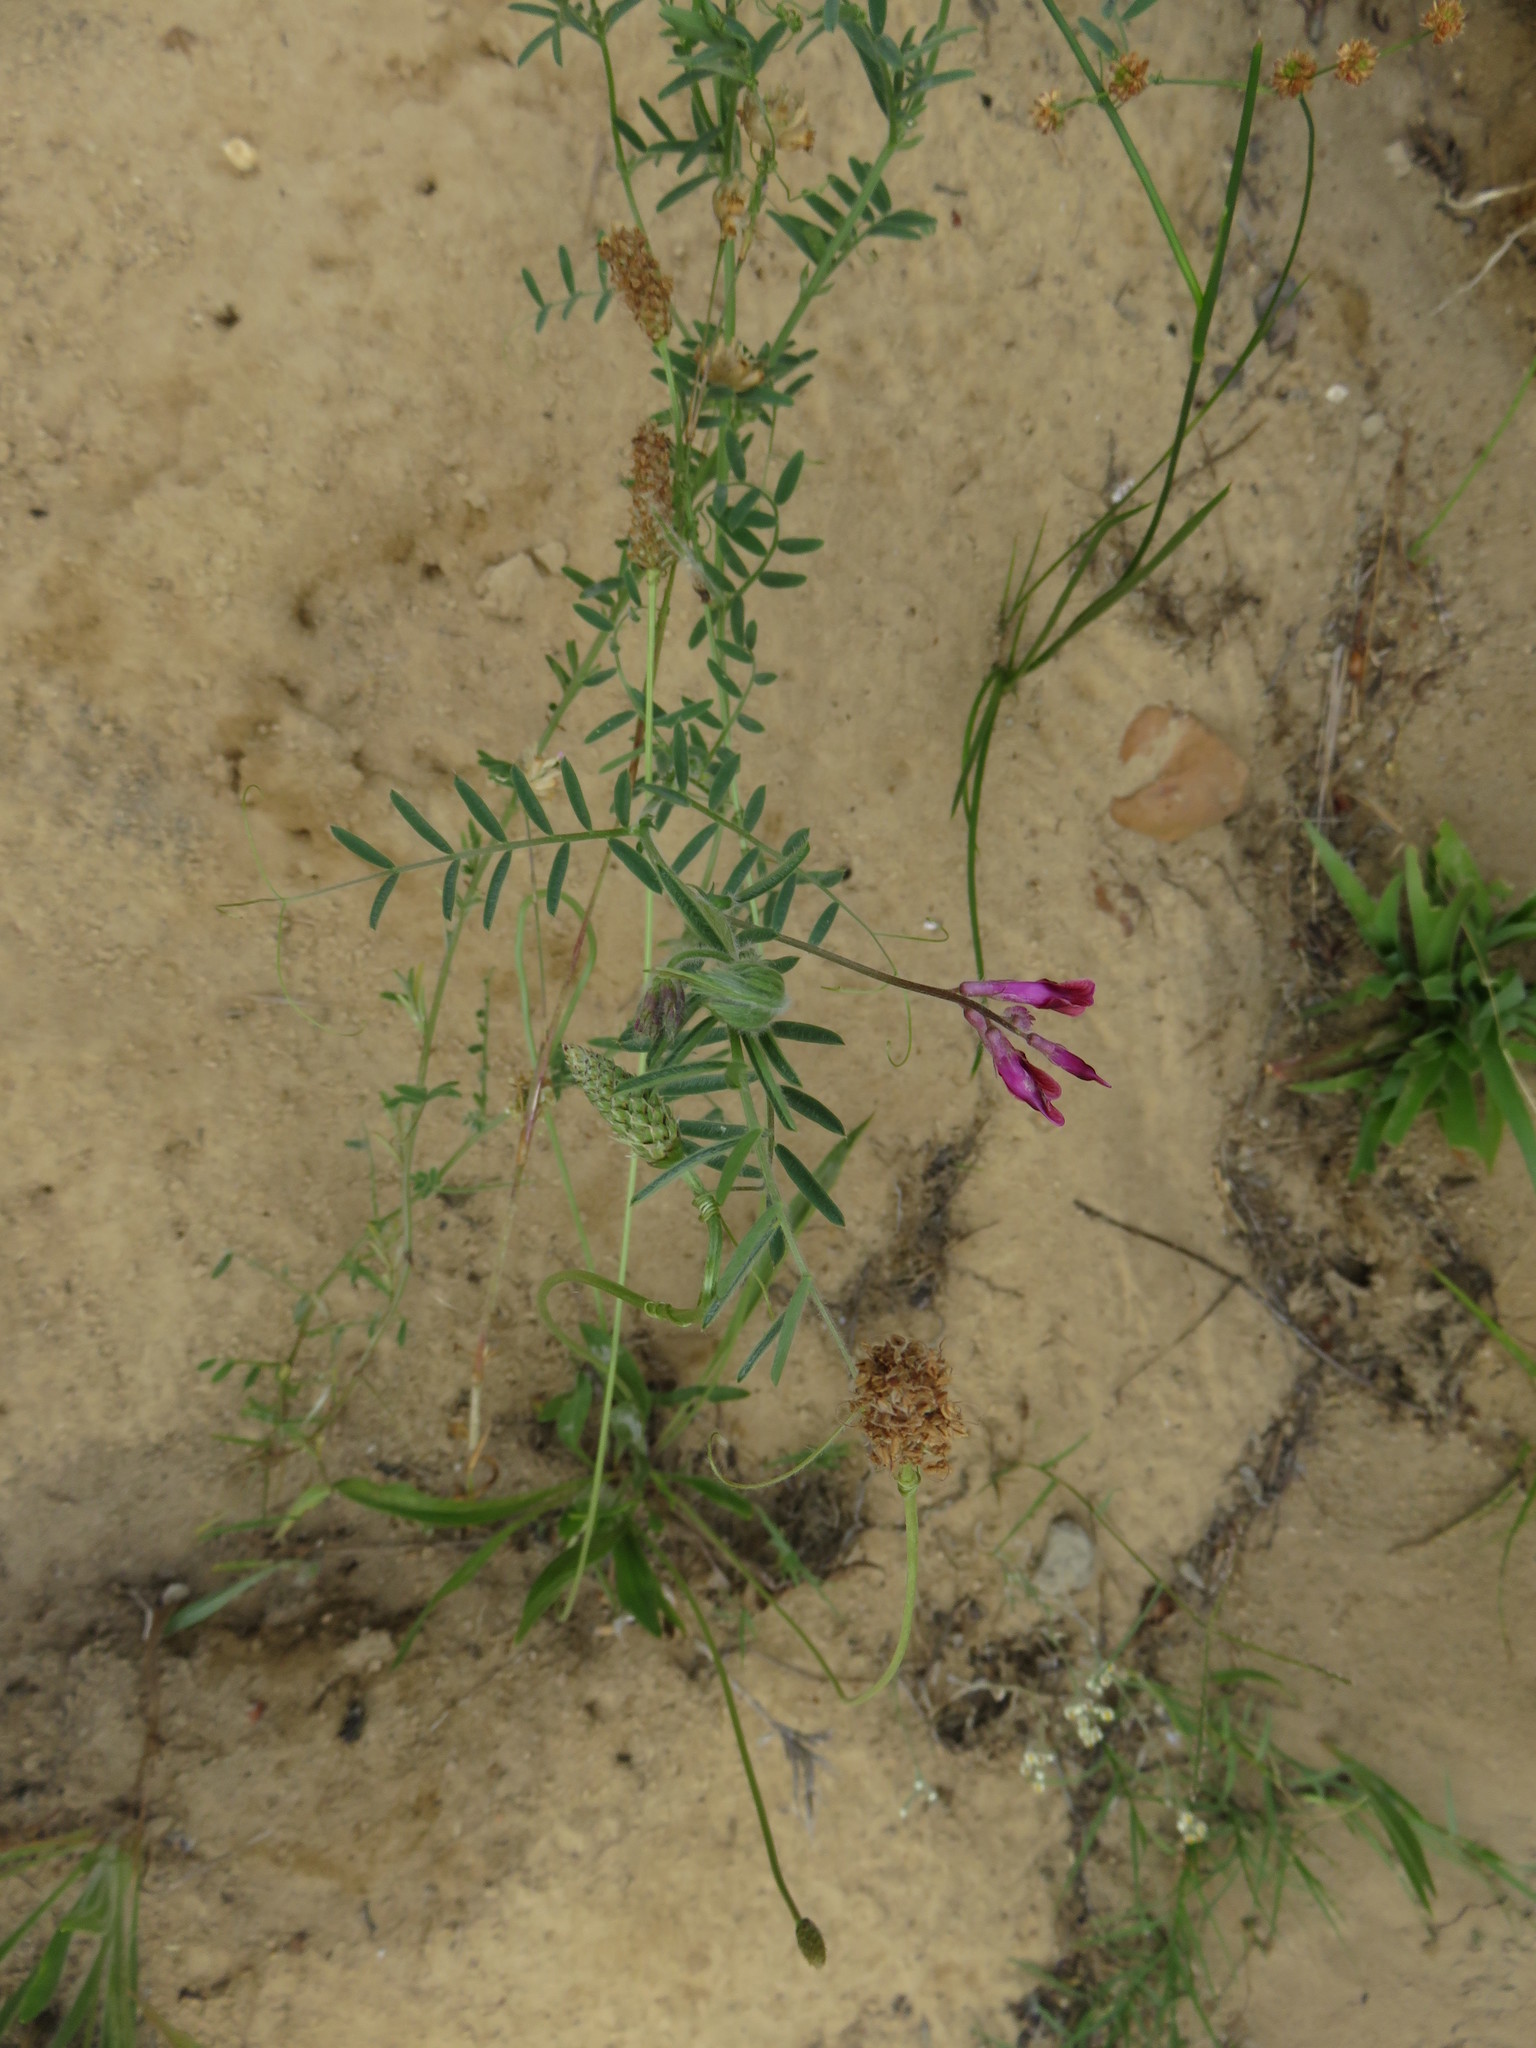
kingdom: Plantae
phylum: Tracheophyta
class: Magnoliopsida
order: Fabales
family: Fabaceae
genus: Vicia
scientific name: Vicia benghalensis
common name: Purple vetch
